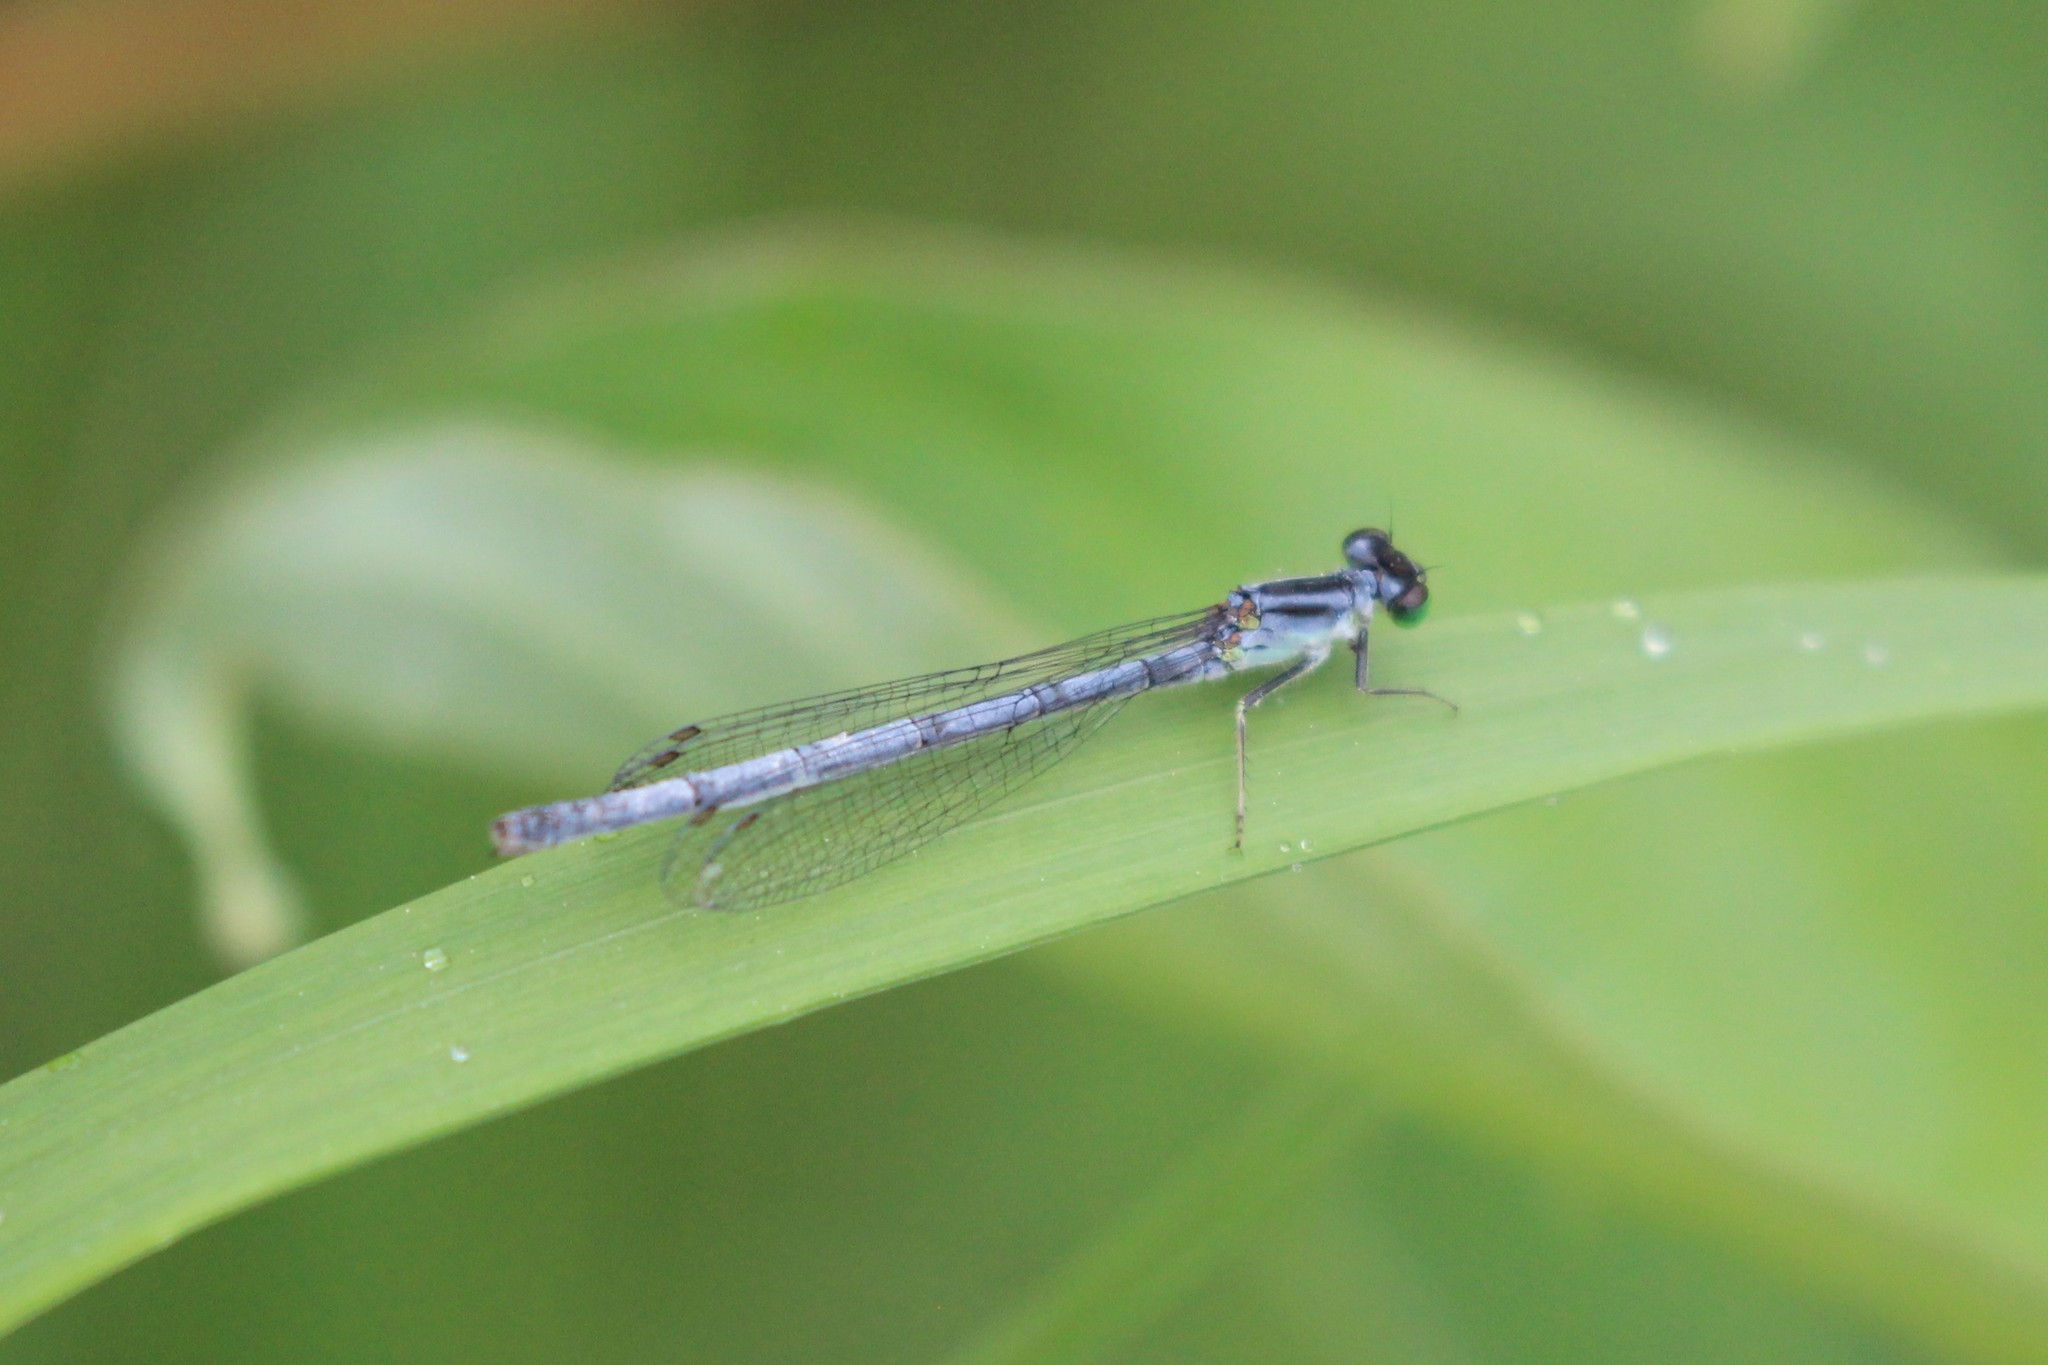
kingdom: Animalia
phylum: Arthropoda
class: Insecta
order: Odonata
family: Coenagrionidae
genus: Ischnura
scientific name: Ischnura verticalis
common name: Eastern forktail
